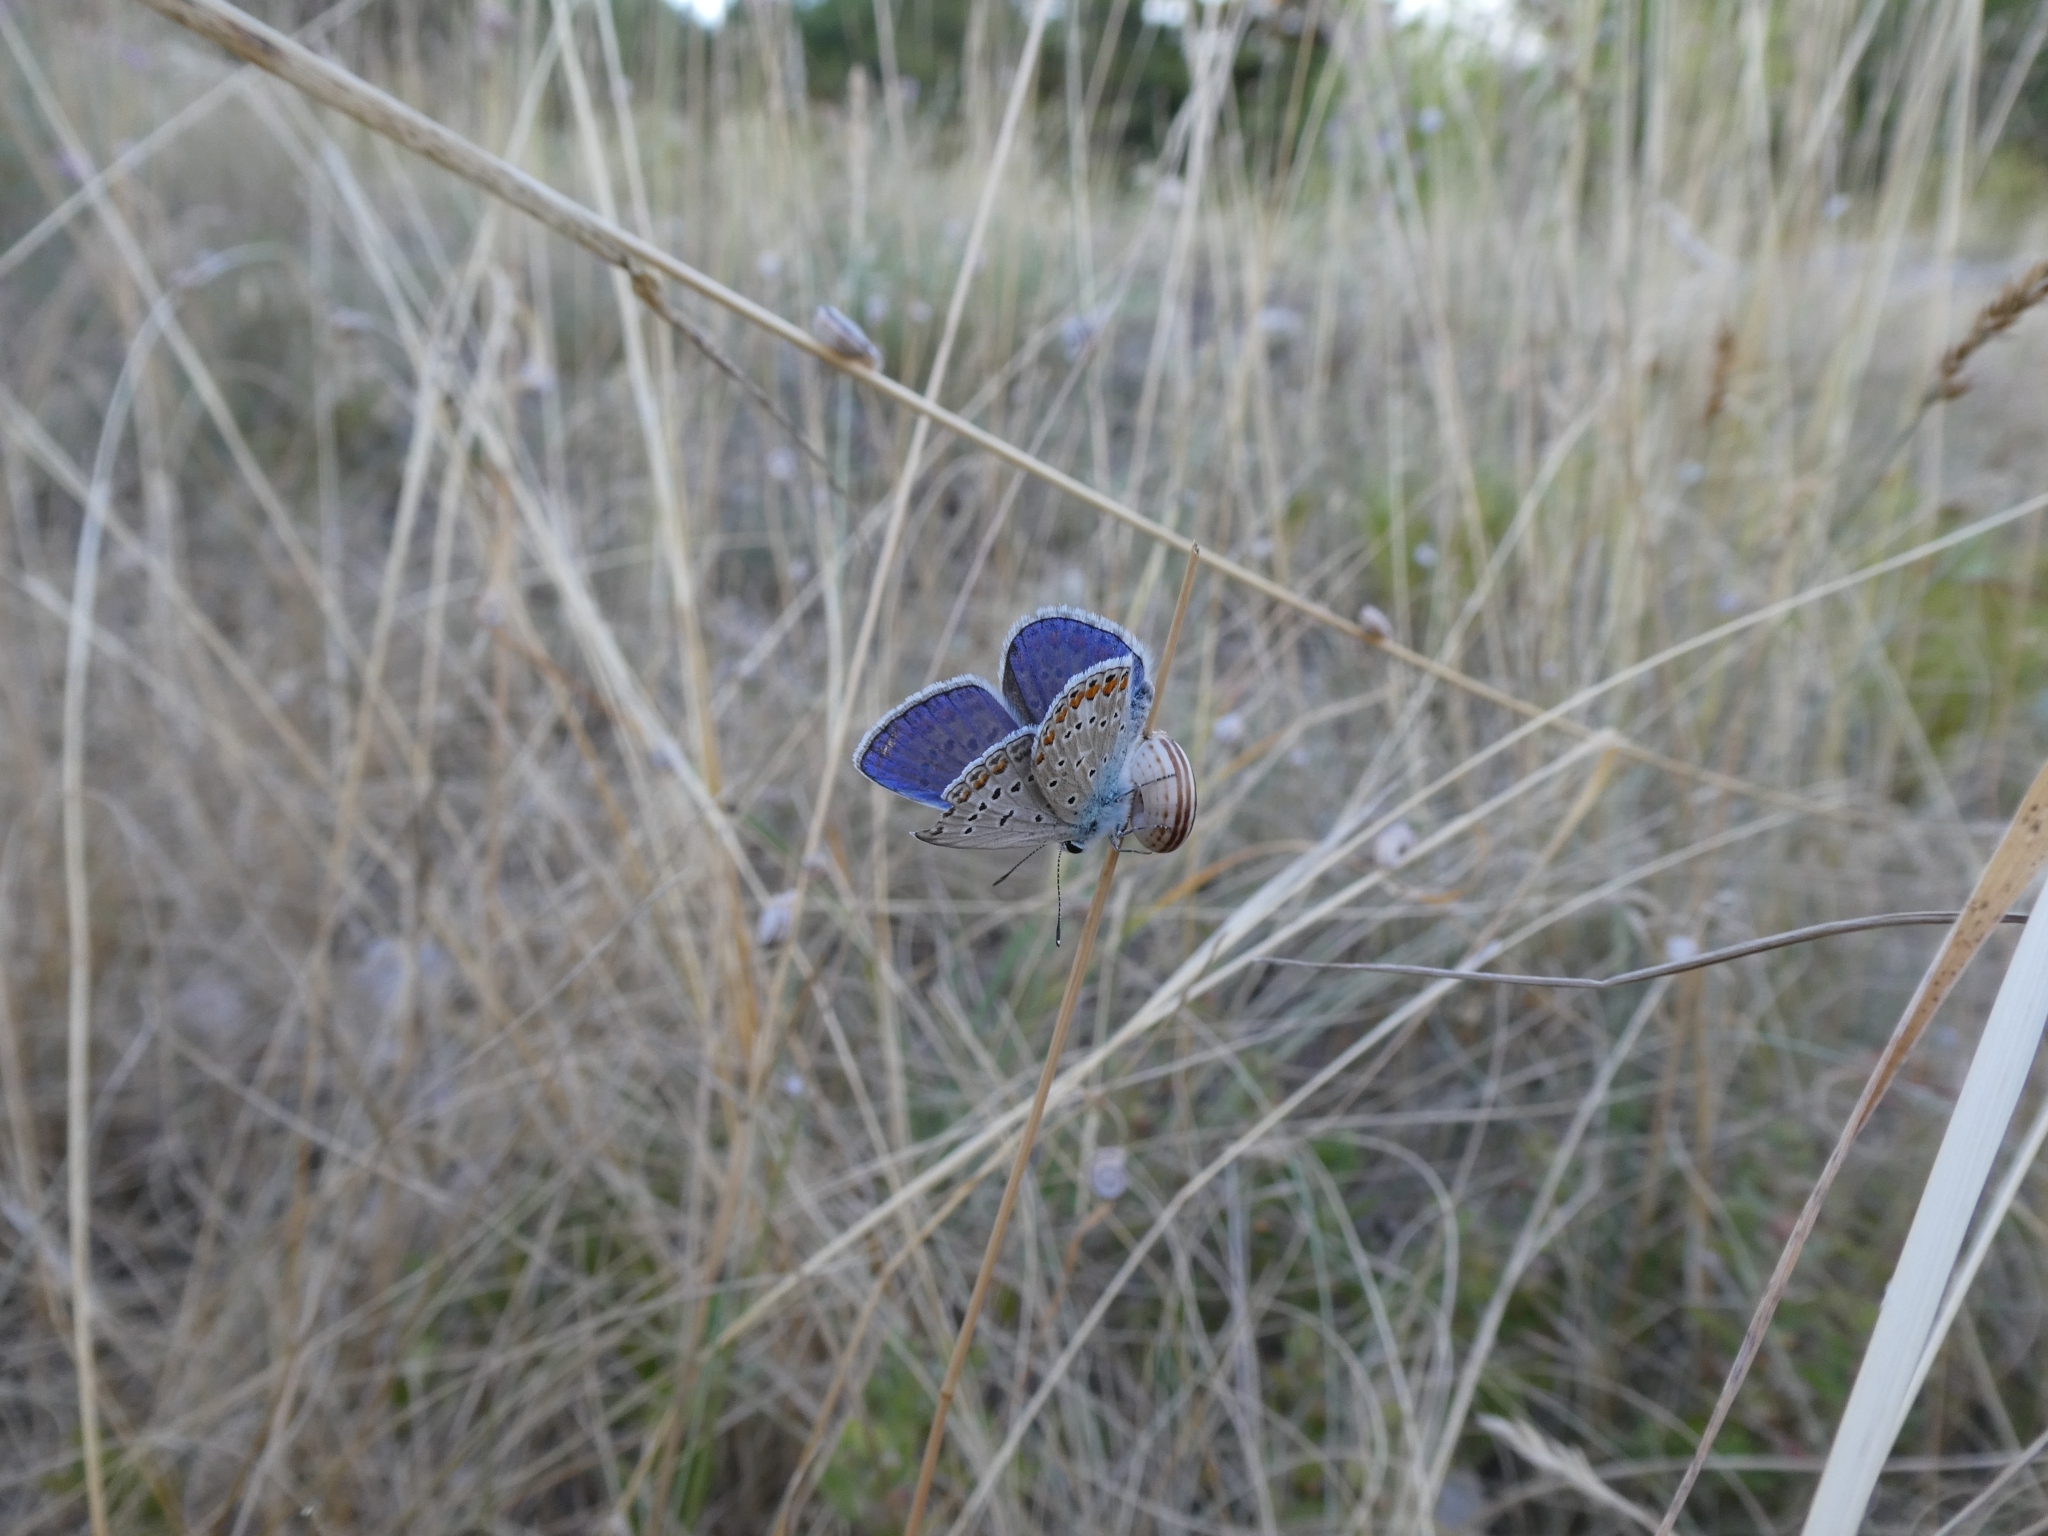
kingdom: Animalia
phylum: Arthropoda
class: Insecta
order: Lepidoptera
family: Lycaenidae
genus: Polyommatus
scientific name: Polyommatus icarus
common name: Common blue
